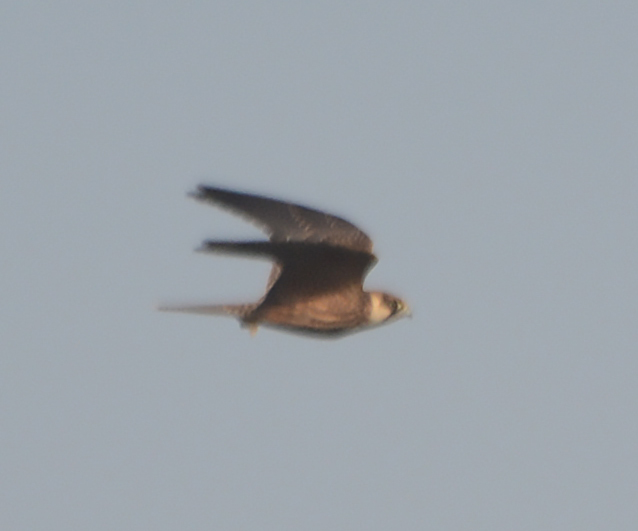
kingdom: Animalia
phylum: Chordata
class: Aves
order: Falconiformes
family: Falconidae
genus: Falco
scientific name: Falco subbuteo
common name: Eurasian hobby
